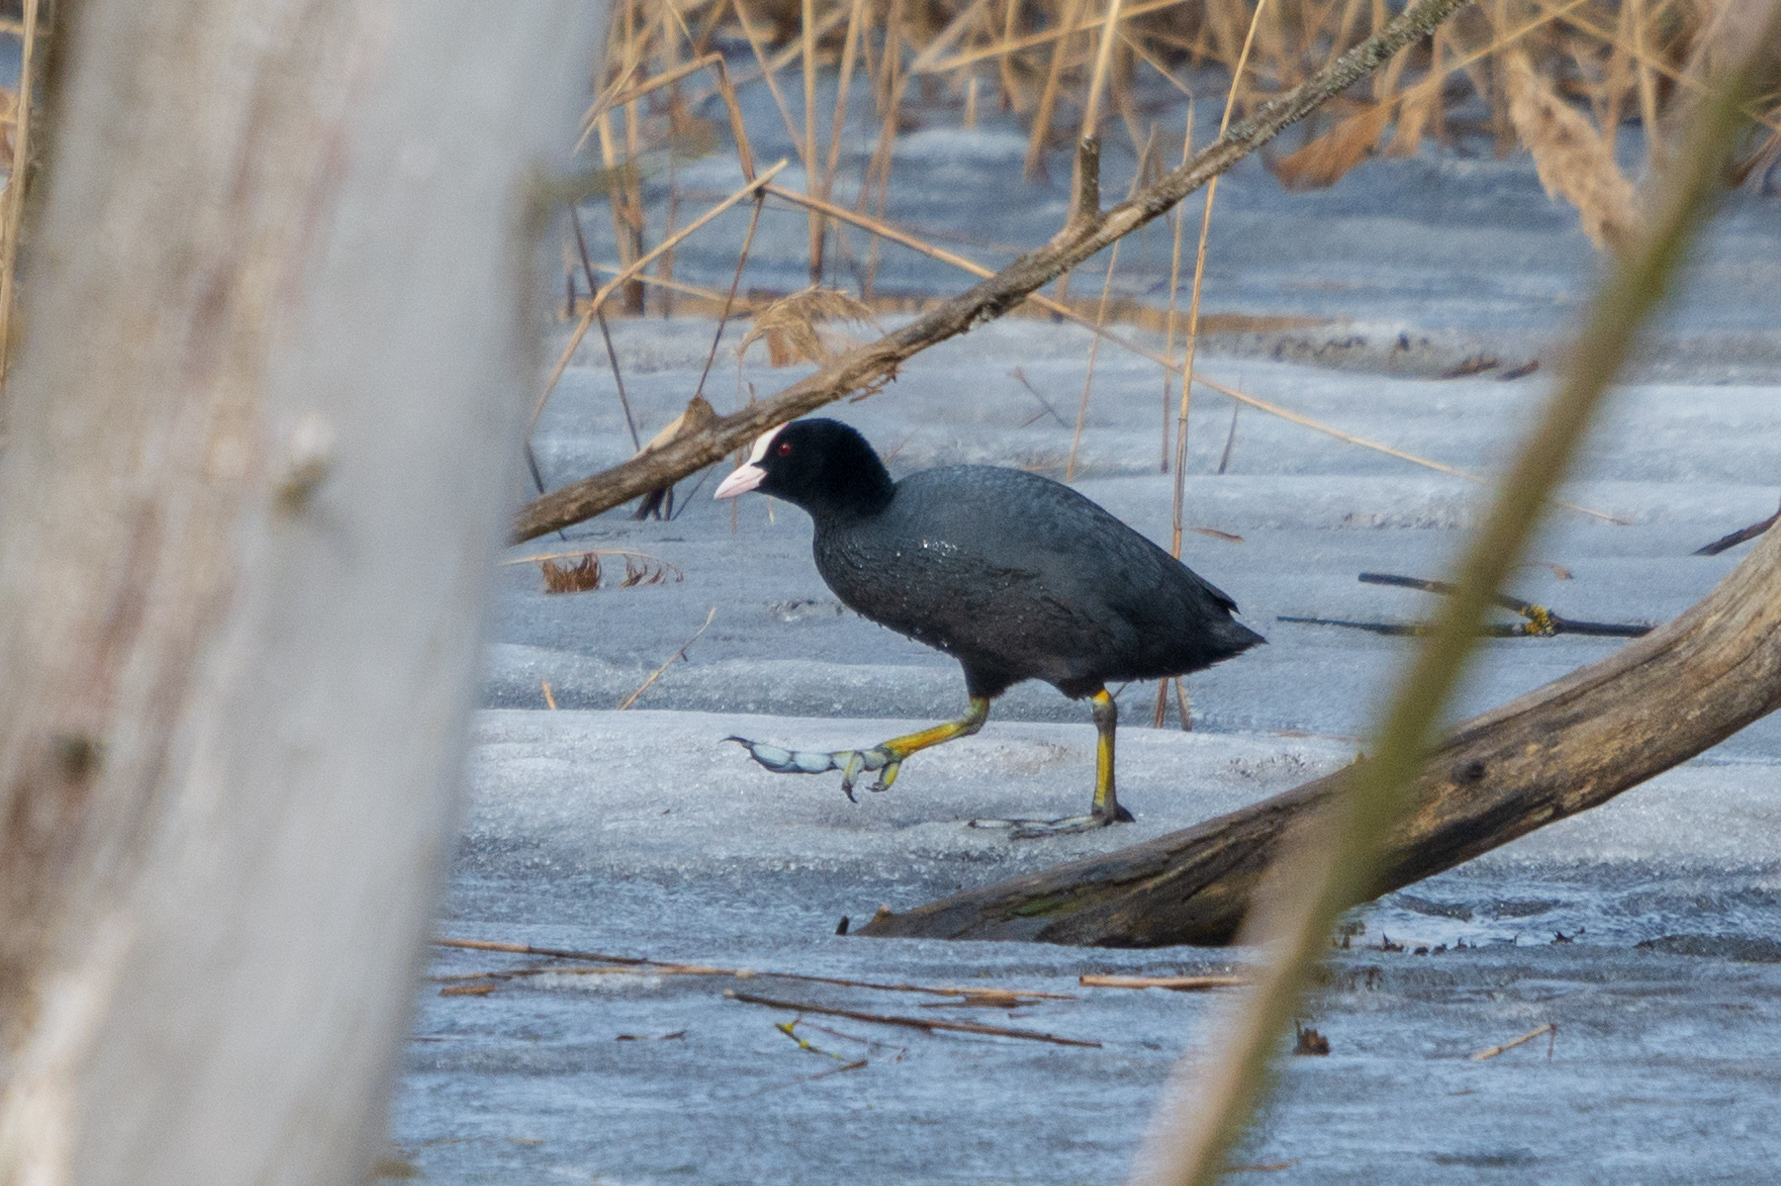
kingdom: Animalia
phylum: Chordata
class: Aves
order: Gruiformes
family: Rallidae
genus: Fulica
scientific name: Fulica atra
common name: Eurasian coot
